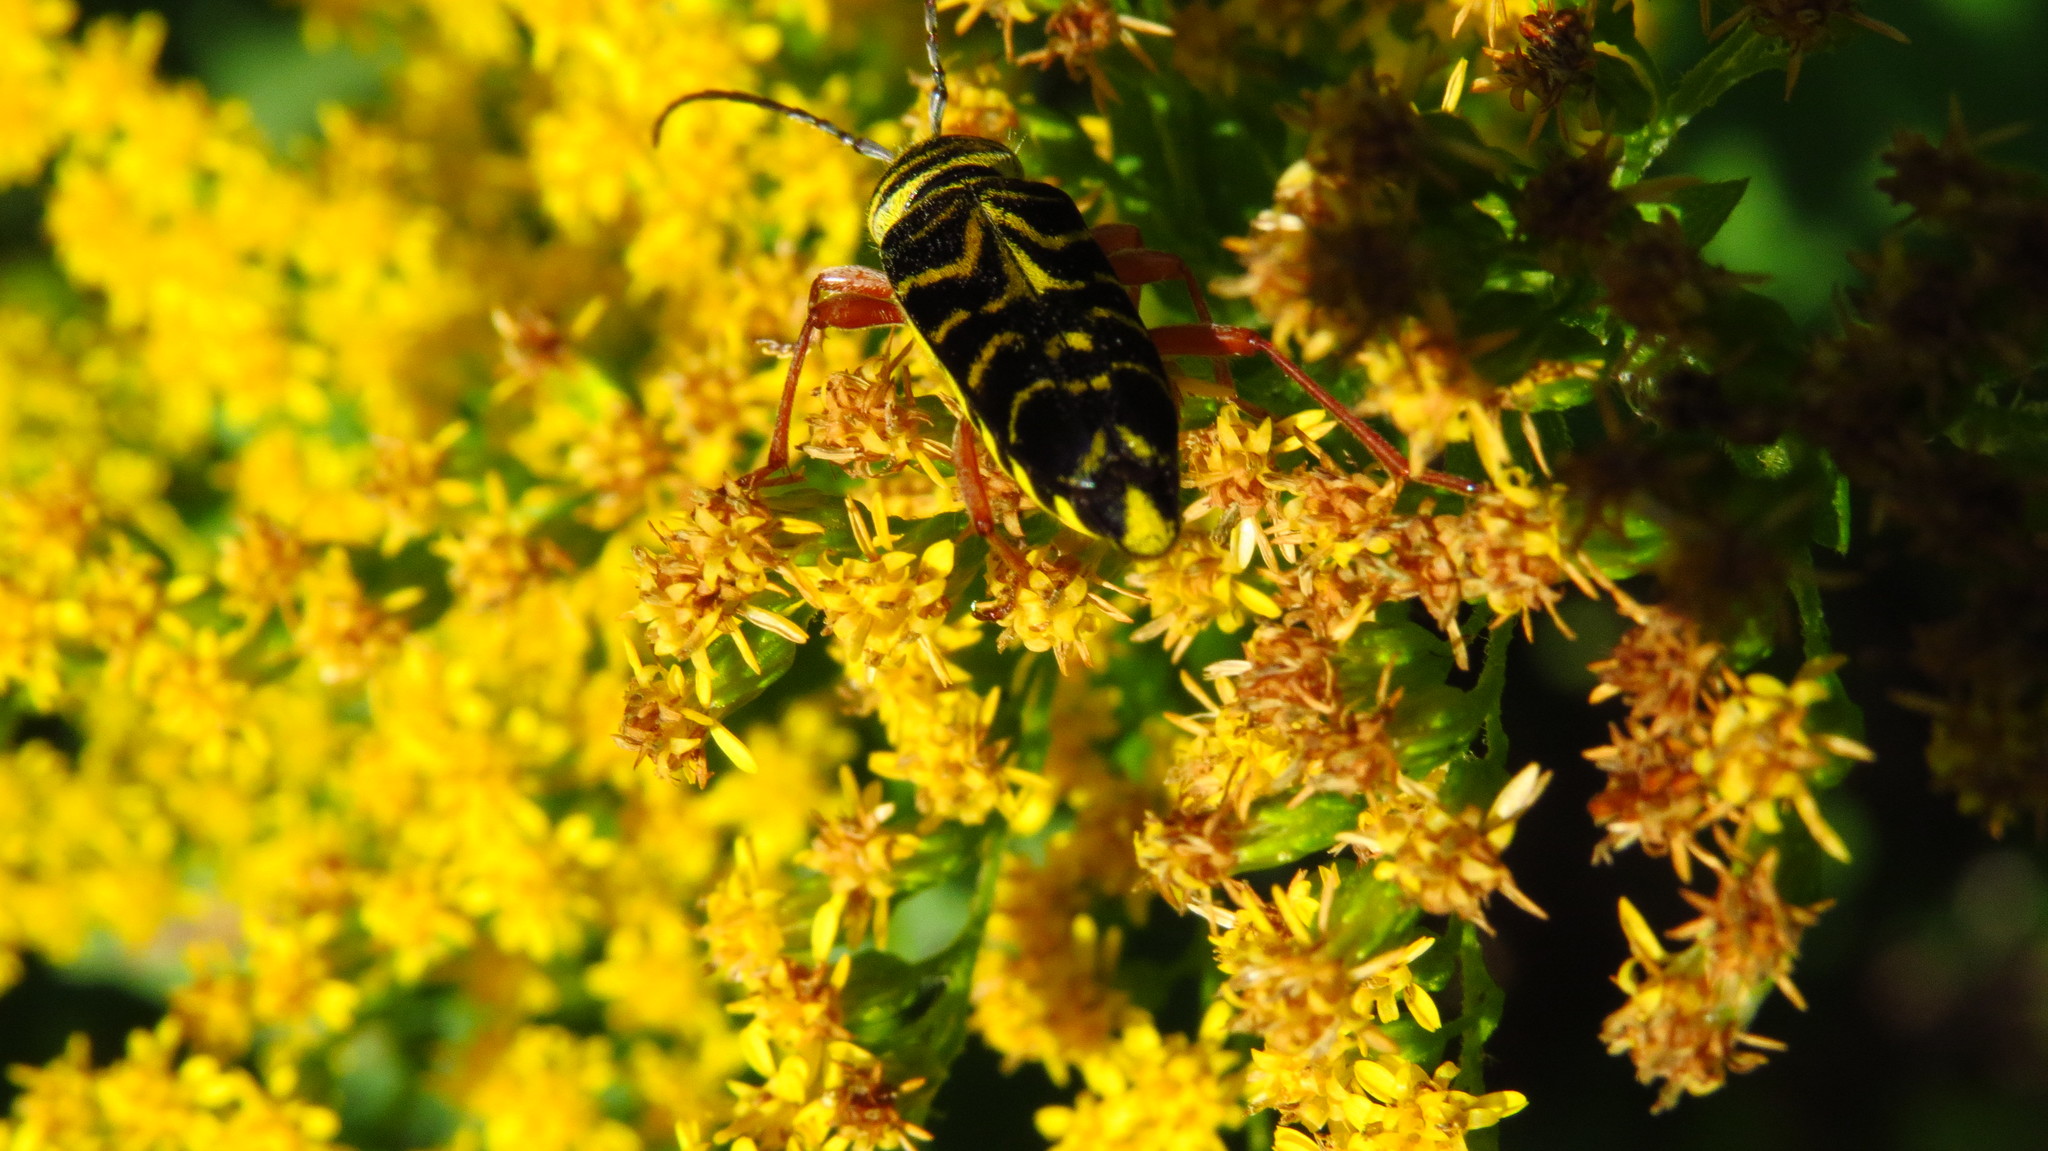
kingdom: Animalia
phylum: Arthropoda
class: Insecta
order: Coleoptera
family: Cerambycidae
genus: Megacyllene
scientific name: Megacyllene robiniae
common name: Locust borer
